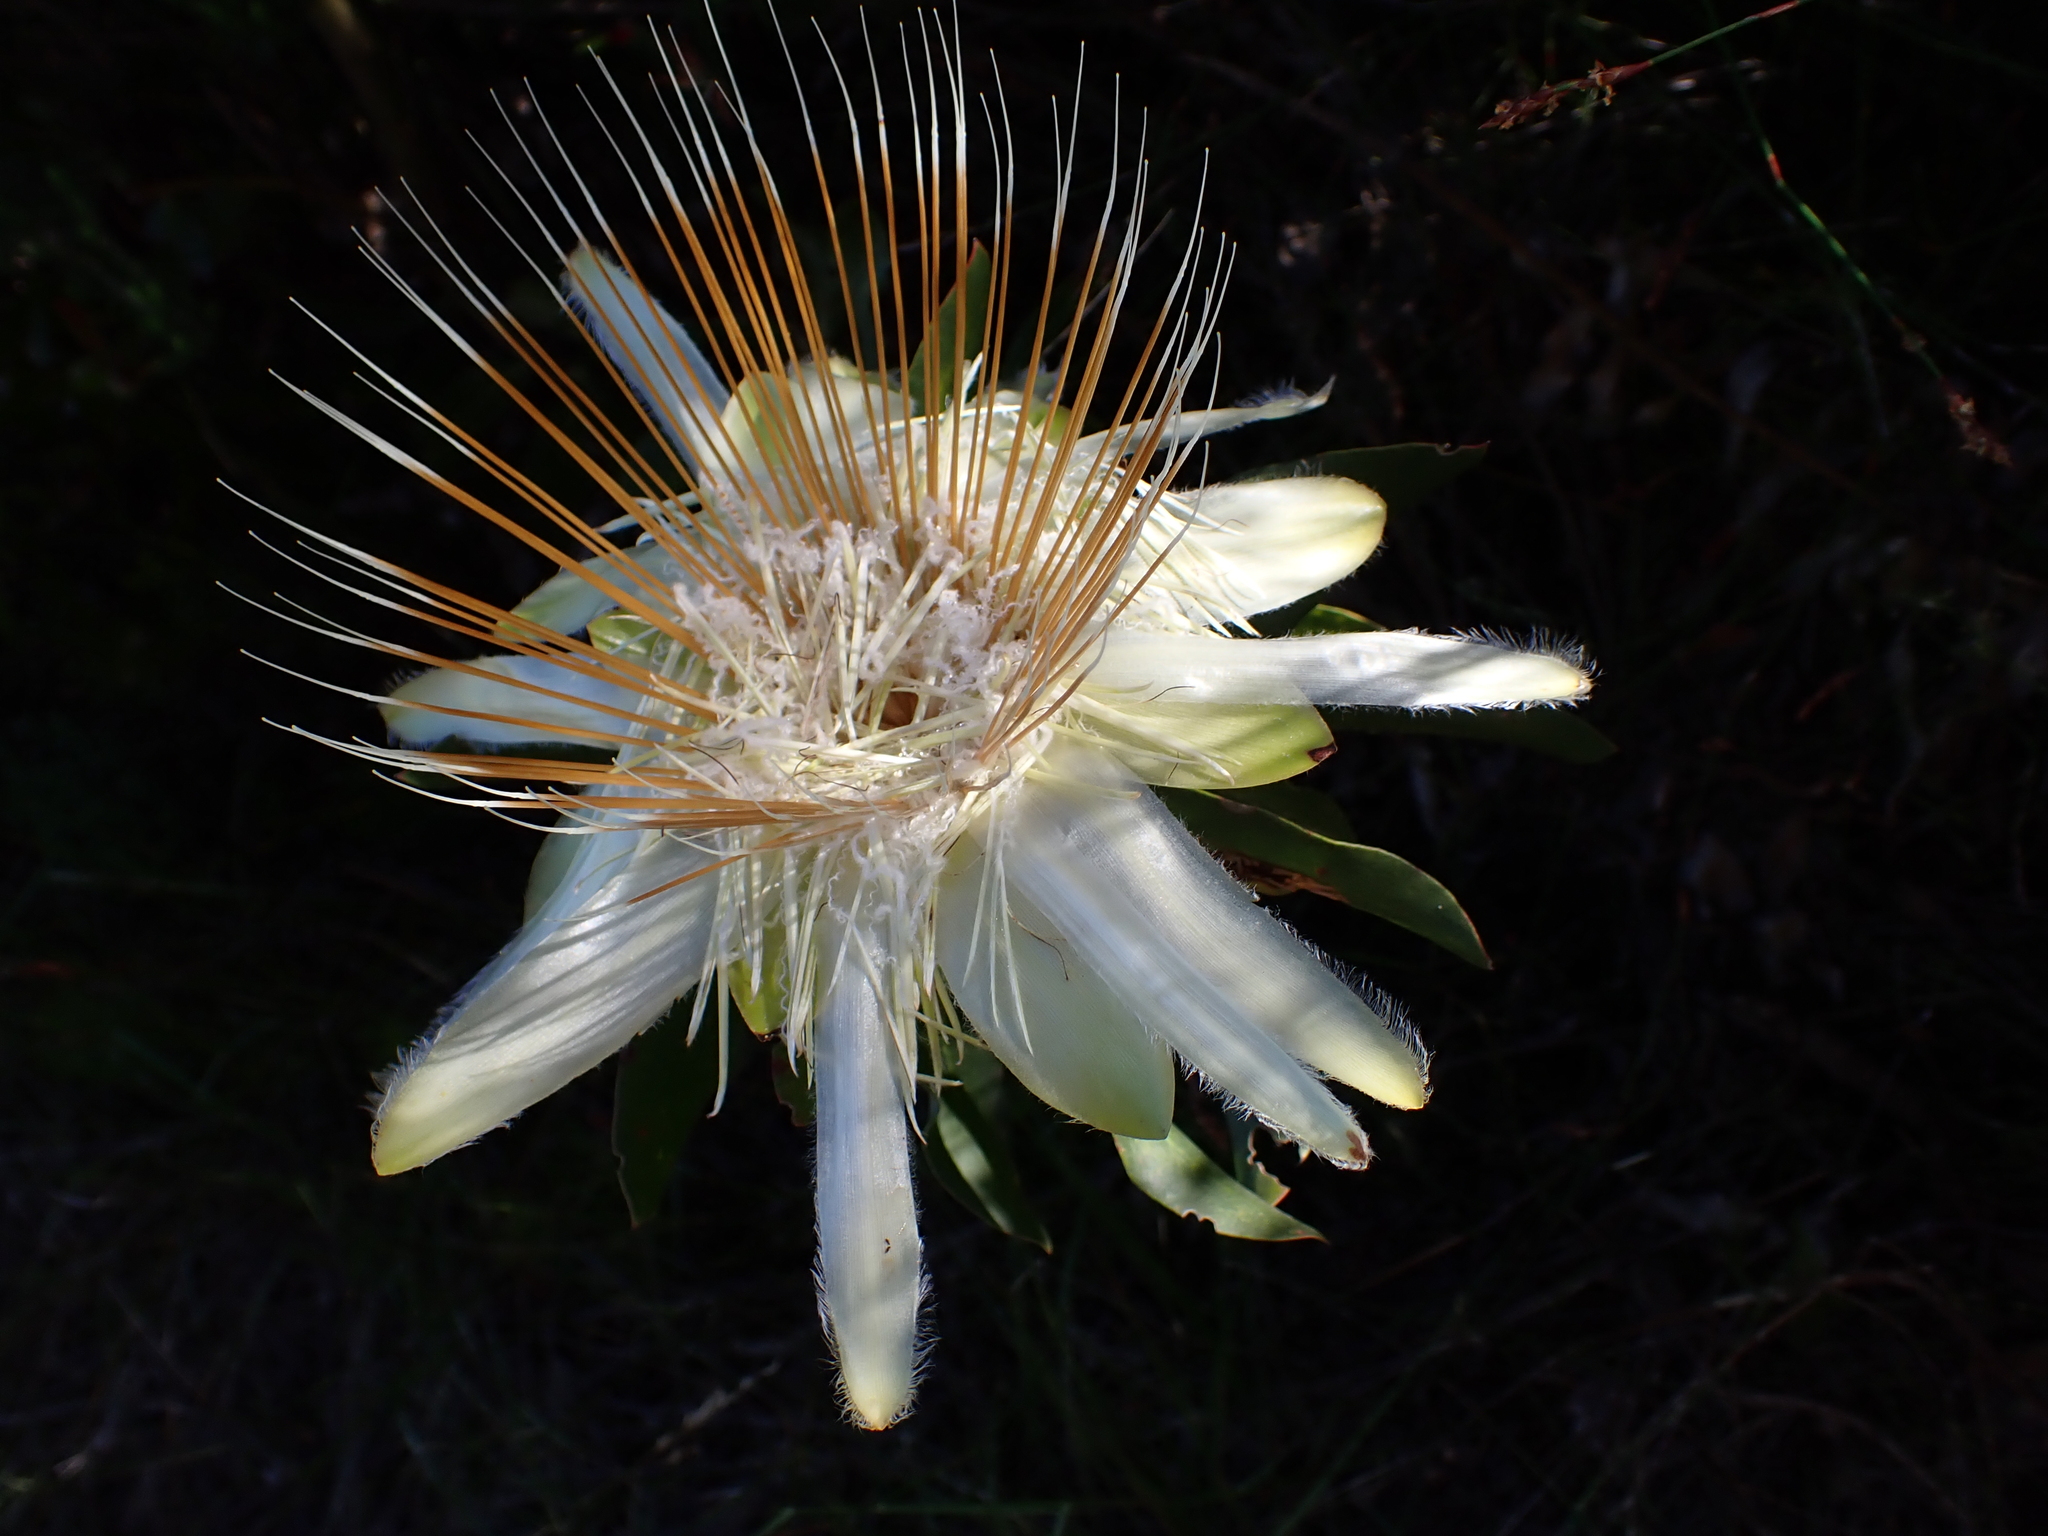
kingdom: Plantae
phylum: Tracheophyta
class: Magnoliopsida
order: Proteales
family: Proteaceae
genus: Protea
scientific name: Protea aurea
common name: Shuttlecock sugarbush
